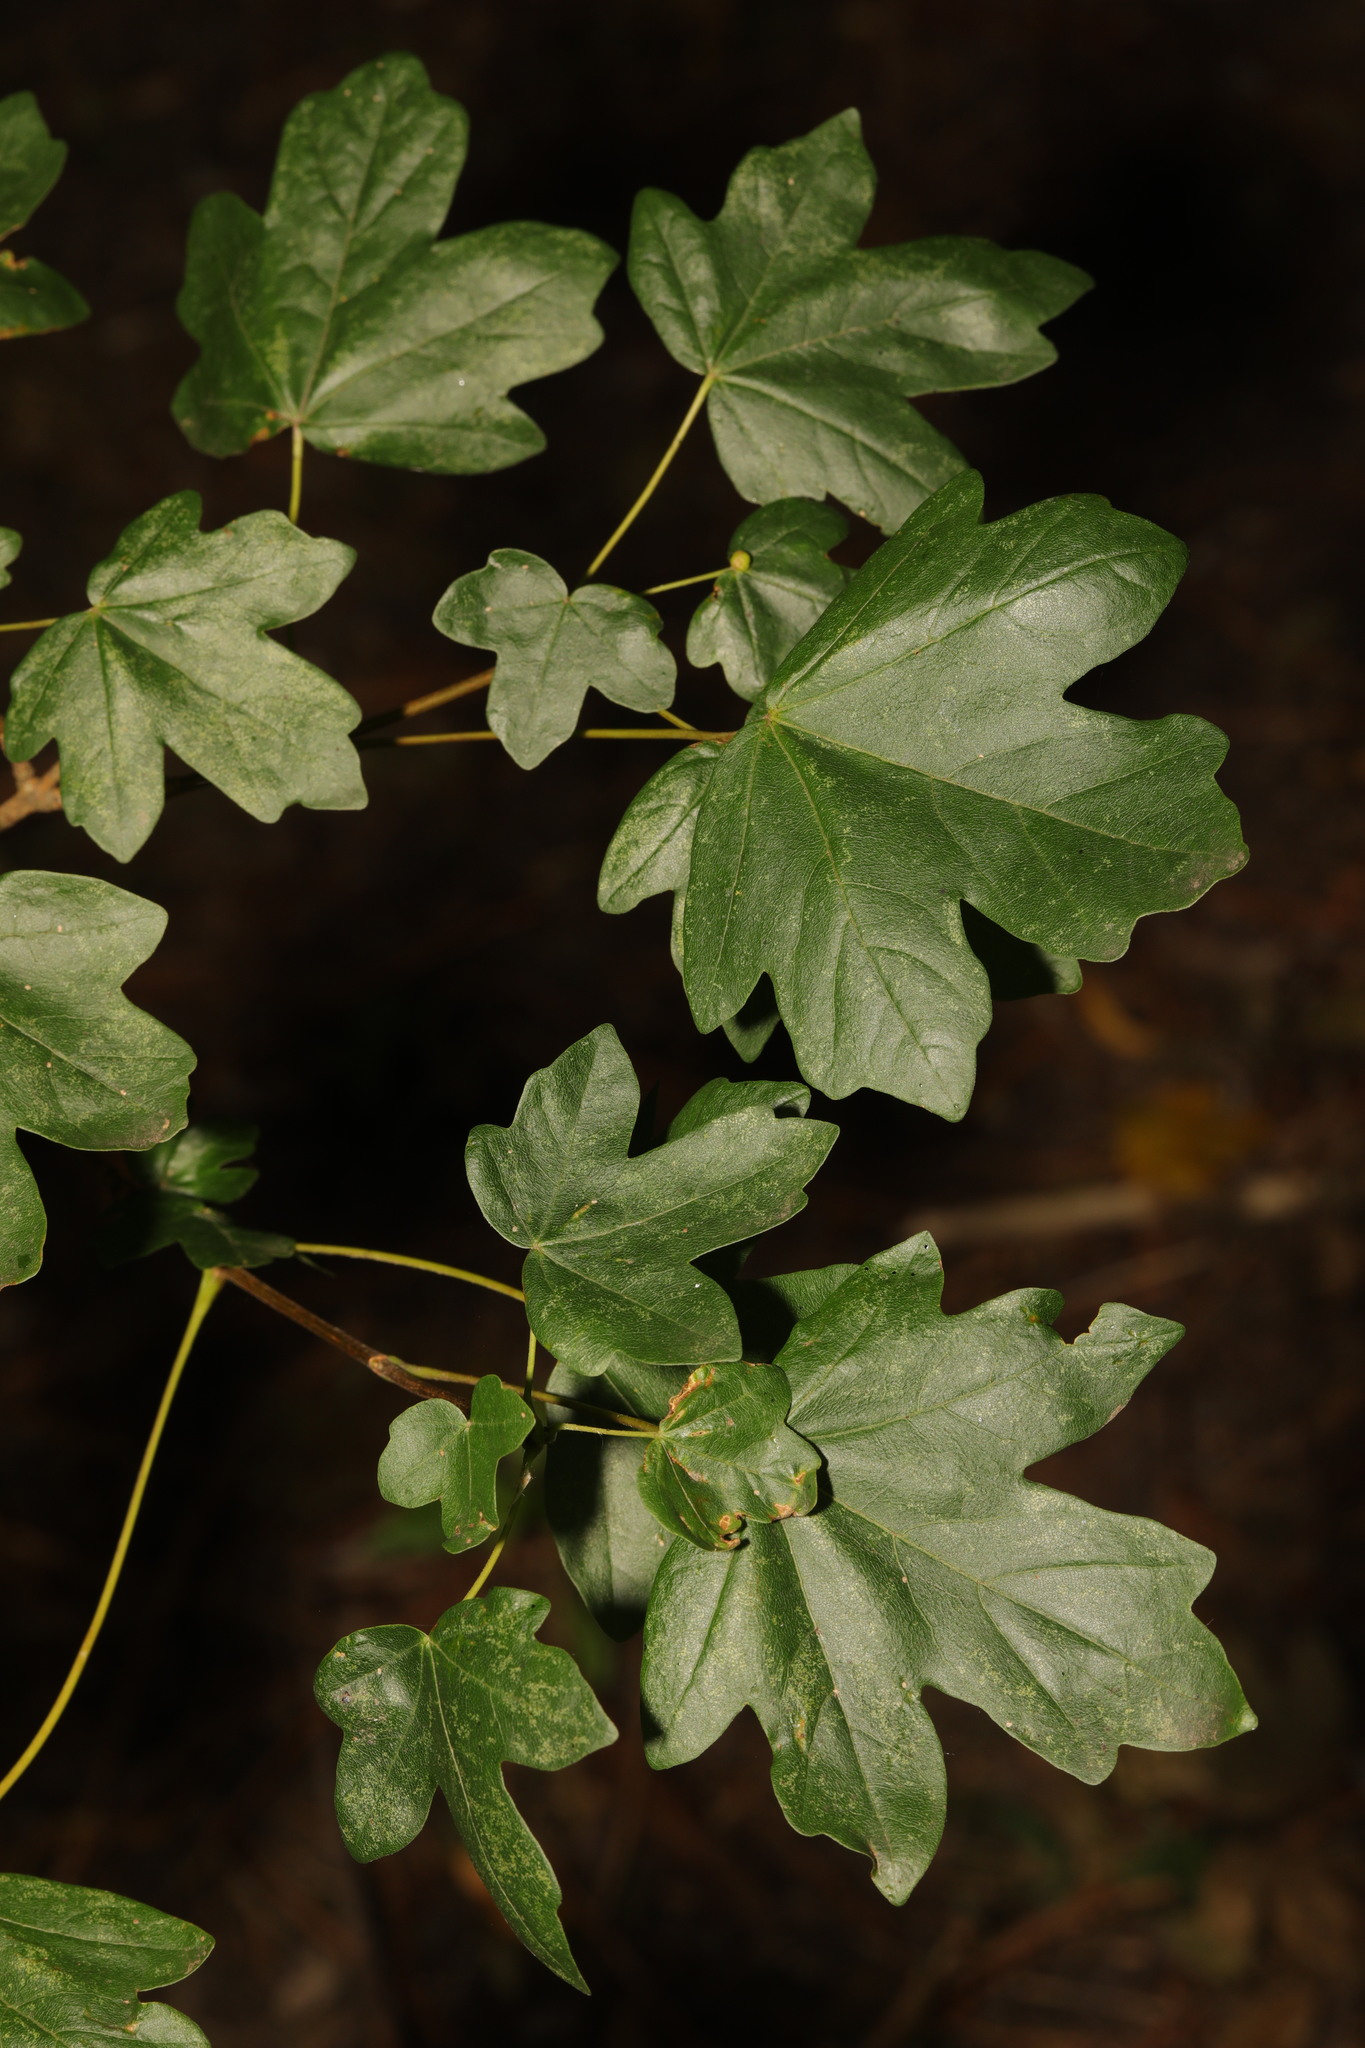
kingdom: Plantae
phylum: Tracheophyta
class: Magnoliopsida
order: Sapindales
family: Sapindaceae
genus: Acer
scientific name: Acer campestre
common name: Field maple
